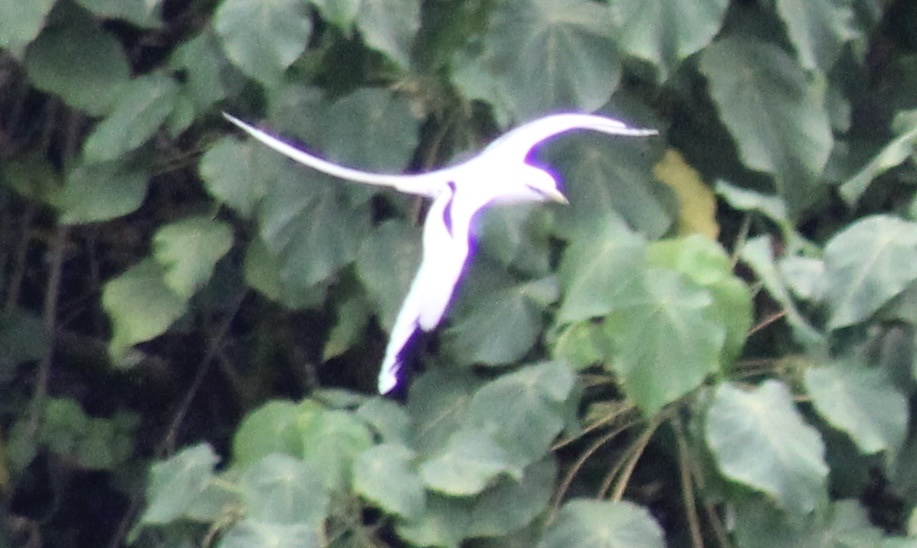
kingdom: Animalia
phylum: Chordata
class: Aves
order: Phaethontiformes
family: Phaethontidae
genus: Phaethon
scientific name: Phaethon lepturus
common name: White-tailed tropicbird
